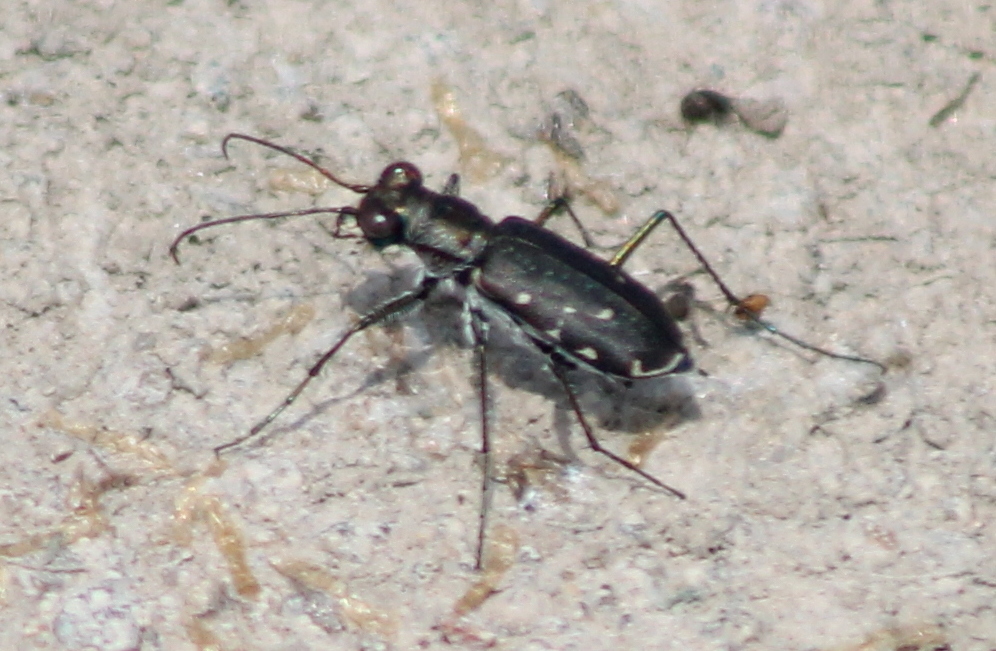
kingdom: Animalia
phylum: Arthropoda
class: Insecta
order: Coleoptera
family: Carabidae
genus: Cicindela
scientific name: Cicindela punctulata
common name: Punctured tiger beetle
